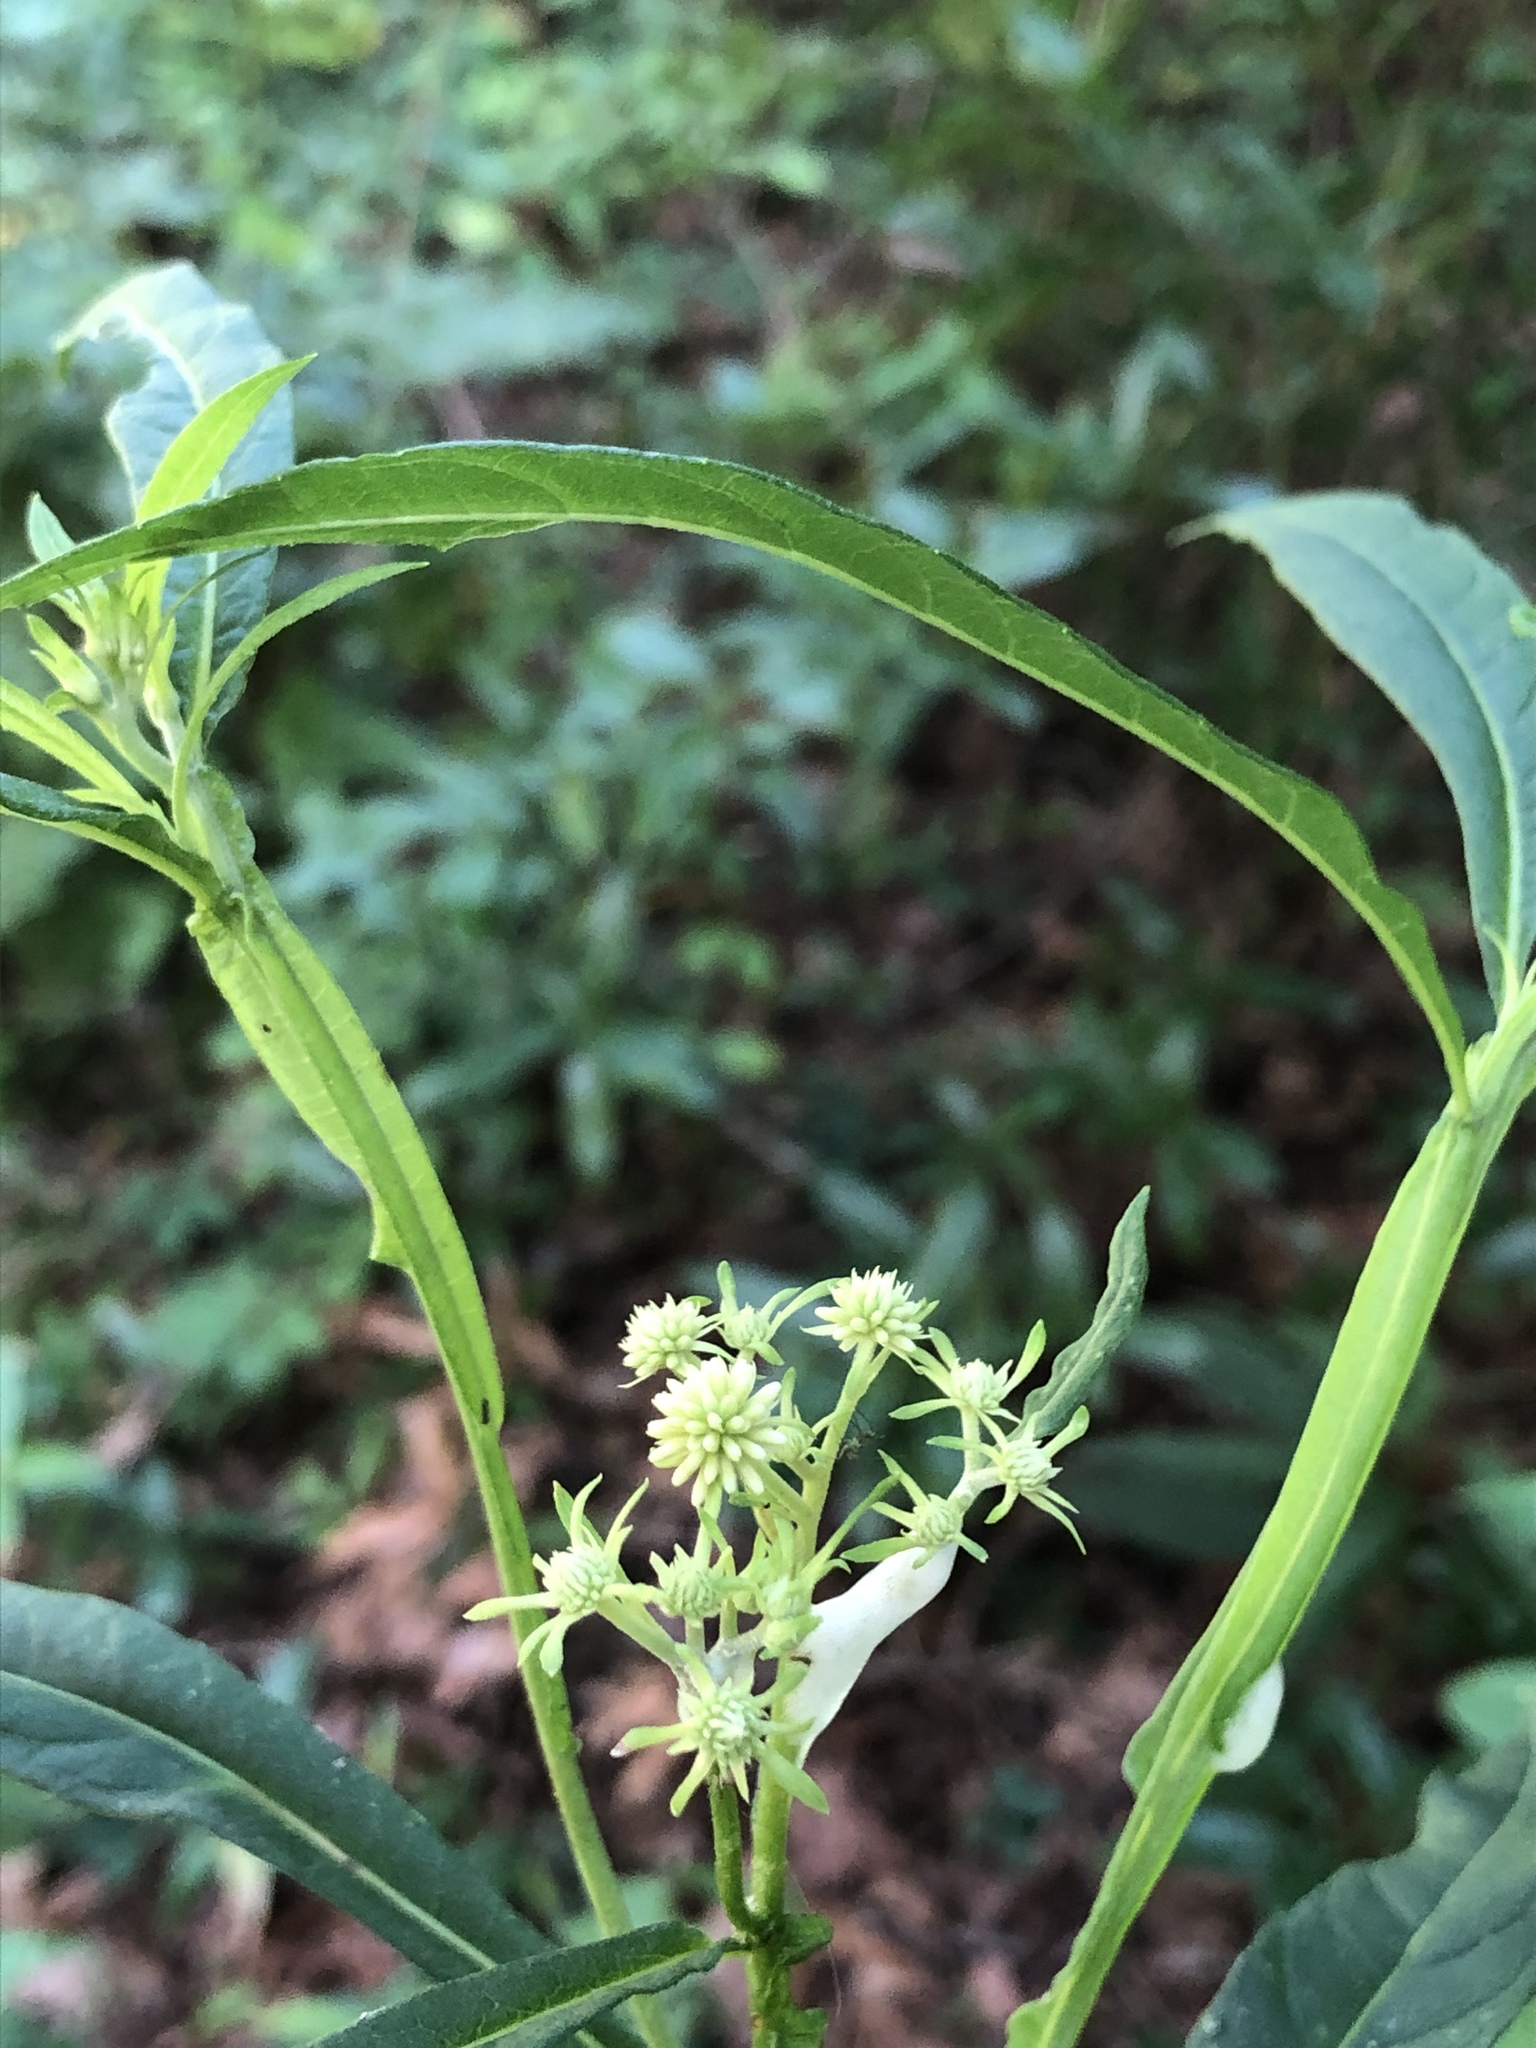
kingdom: Plantae
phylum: Tracheophyta
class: Magnoliopsida
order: Asterales
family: Asteraceae
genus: Verbesina
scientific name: Verbesina walteri
